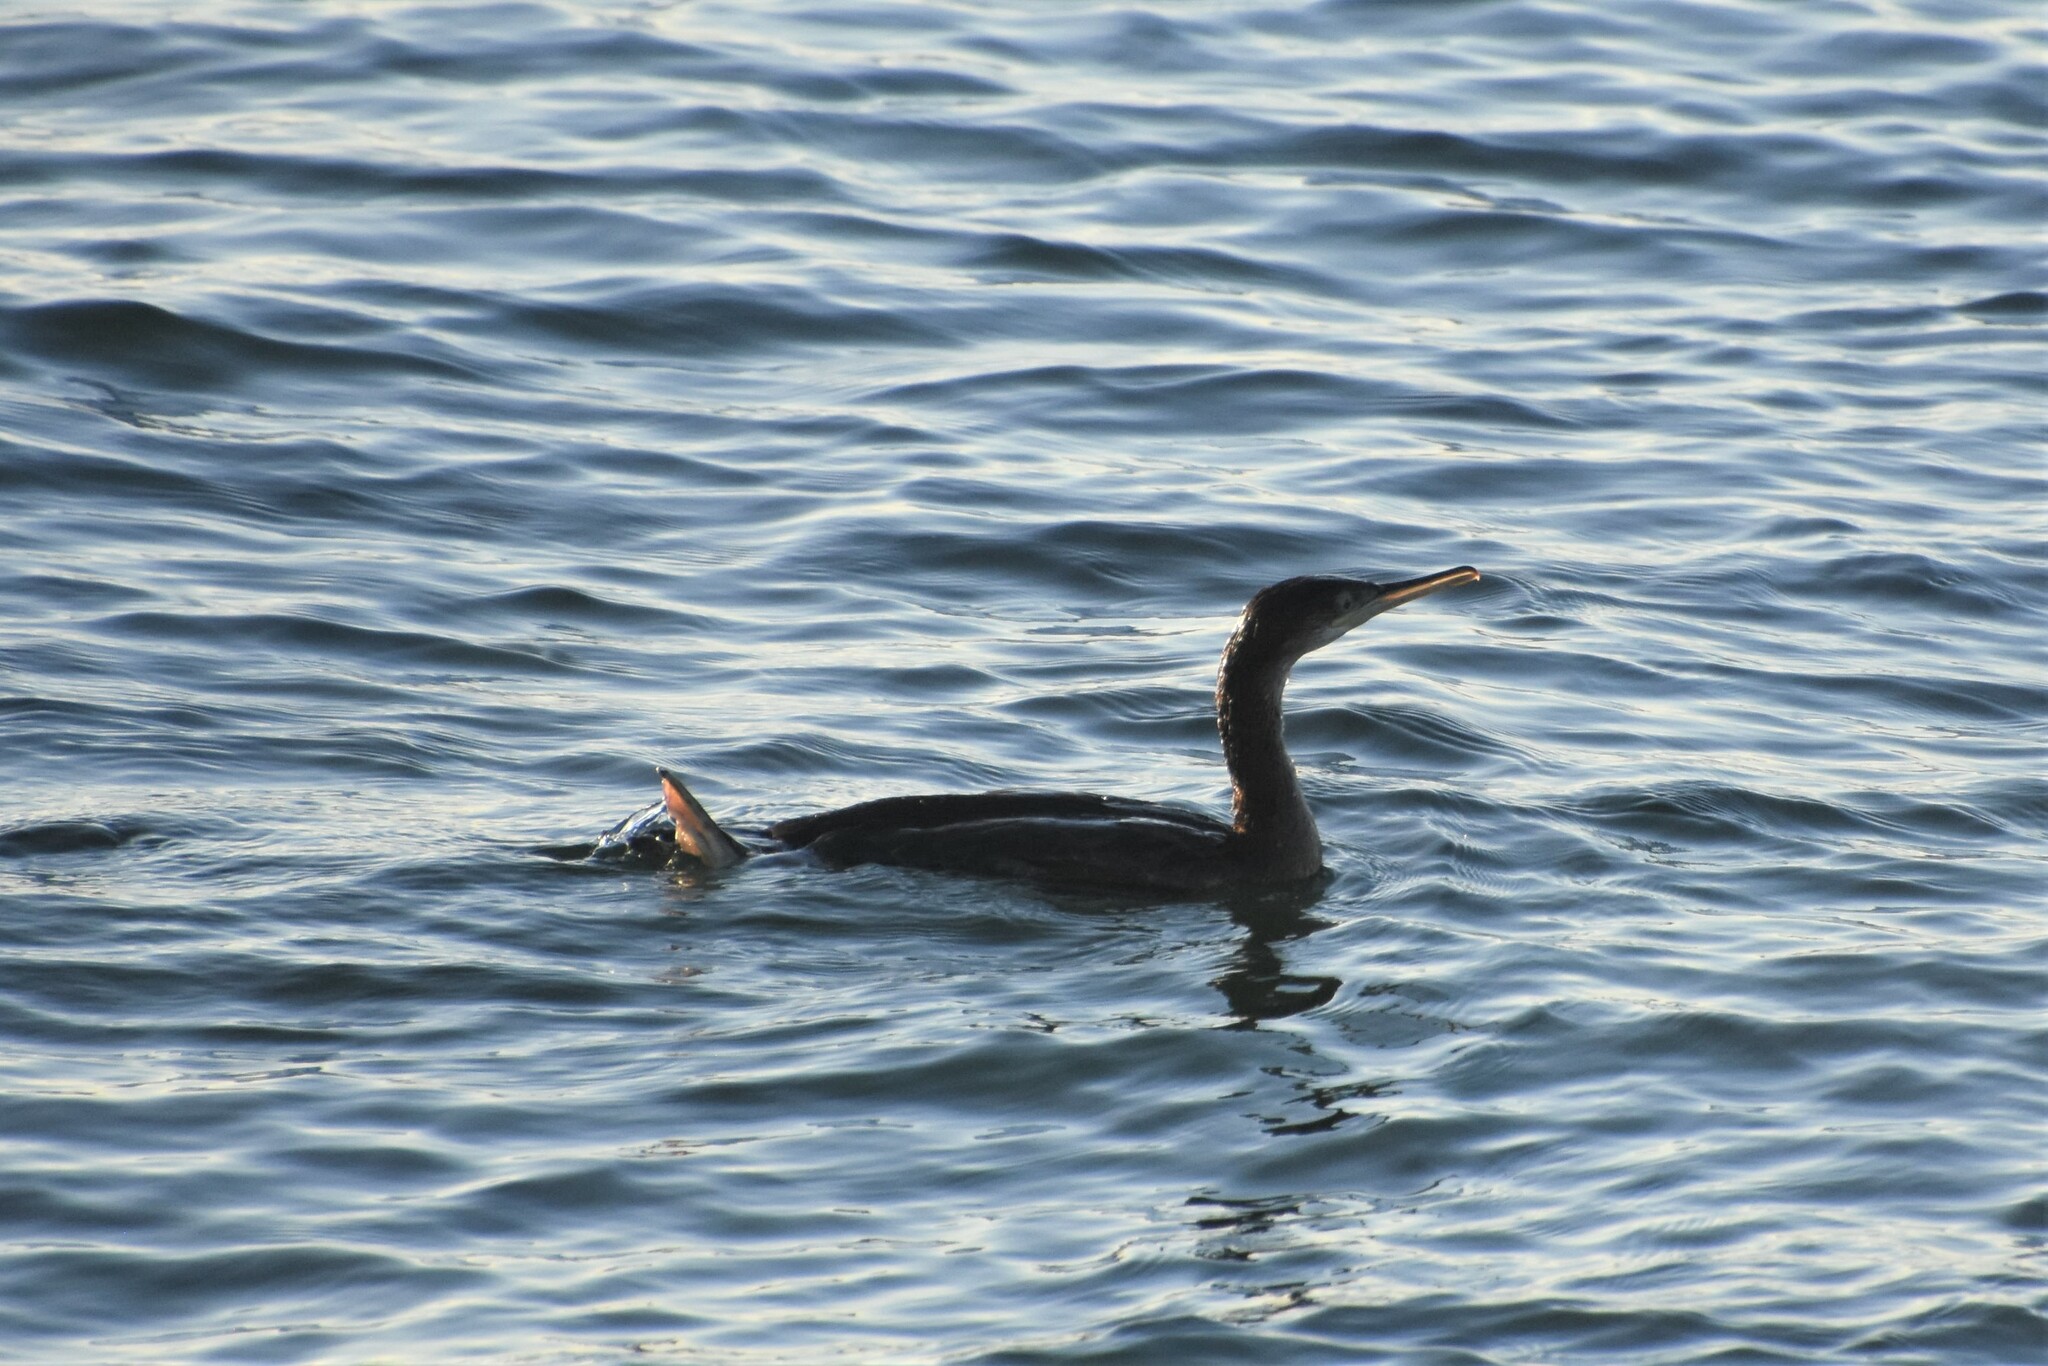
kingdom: Animalia
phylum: Chordata
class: Aves
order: Suliformes
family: Phalacrocoracidae
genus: Phalacrocorax
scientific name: Phalacrocorax aristotelis
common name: European shag
